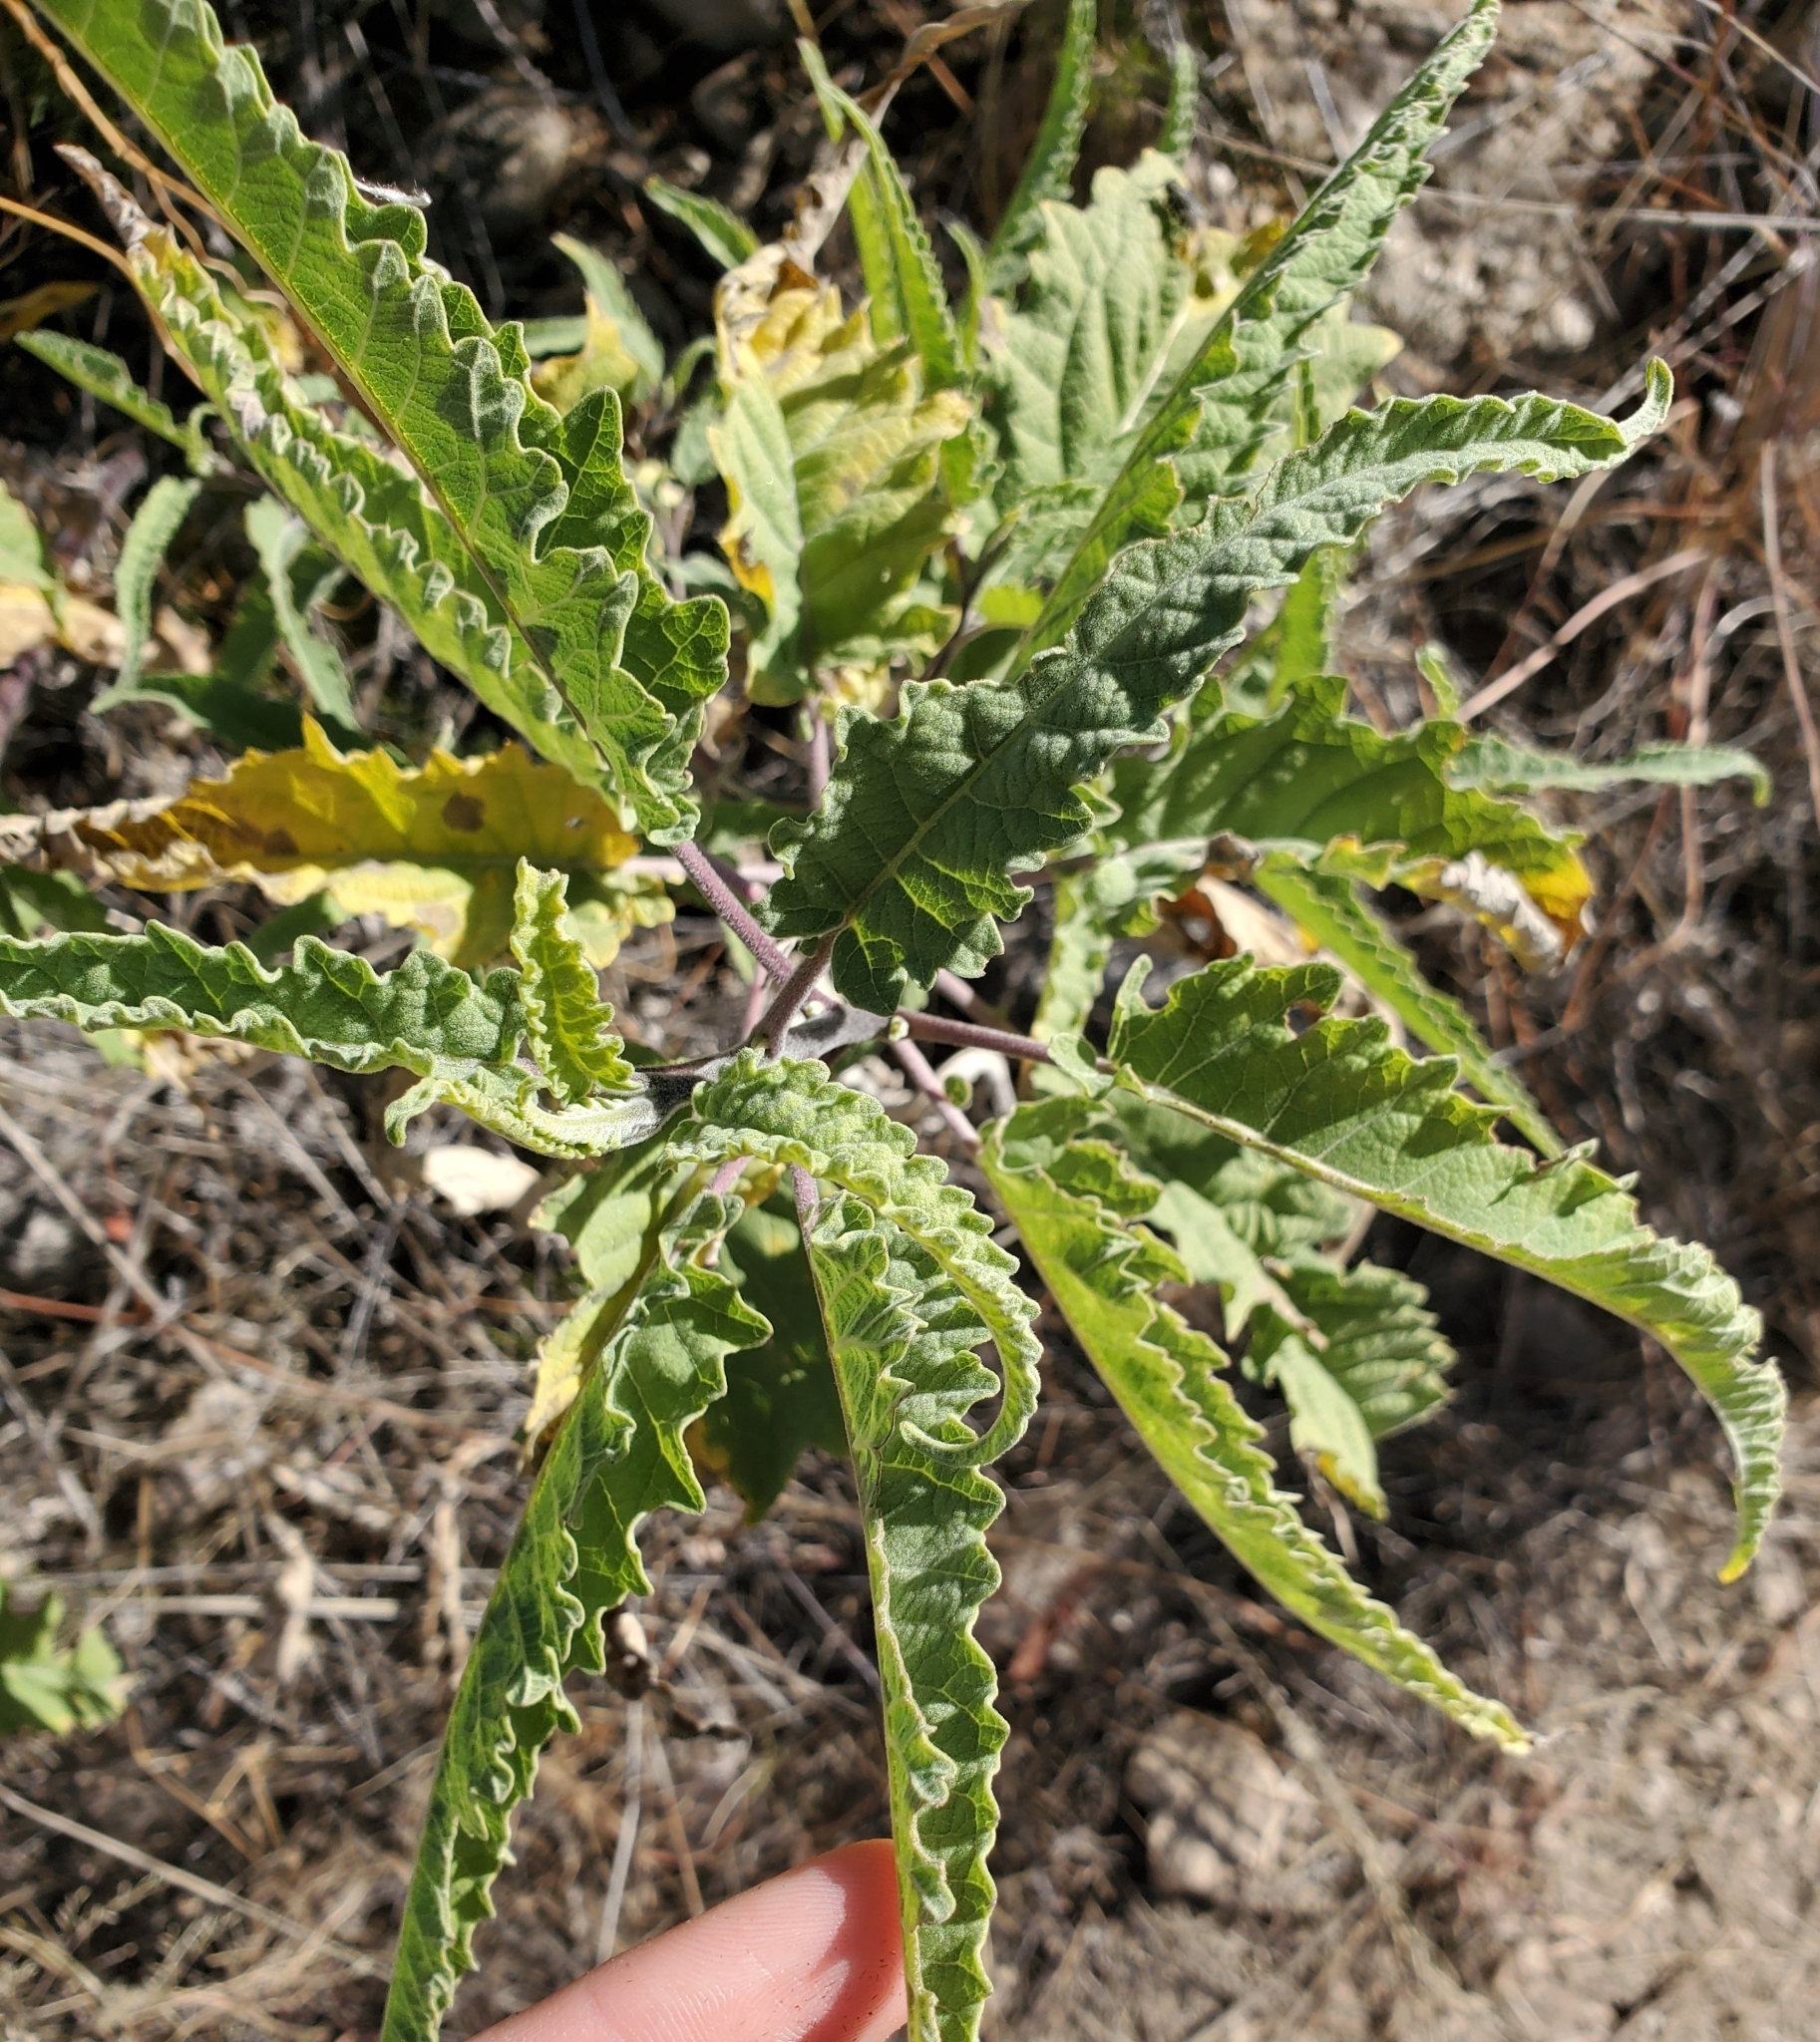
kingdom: Plantae
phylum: Tracheophyta
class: Magnoliopsida
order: Asterales
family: Asteraceae
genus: Ambrosia
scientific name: Ambrosia ambrosioides
